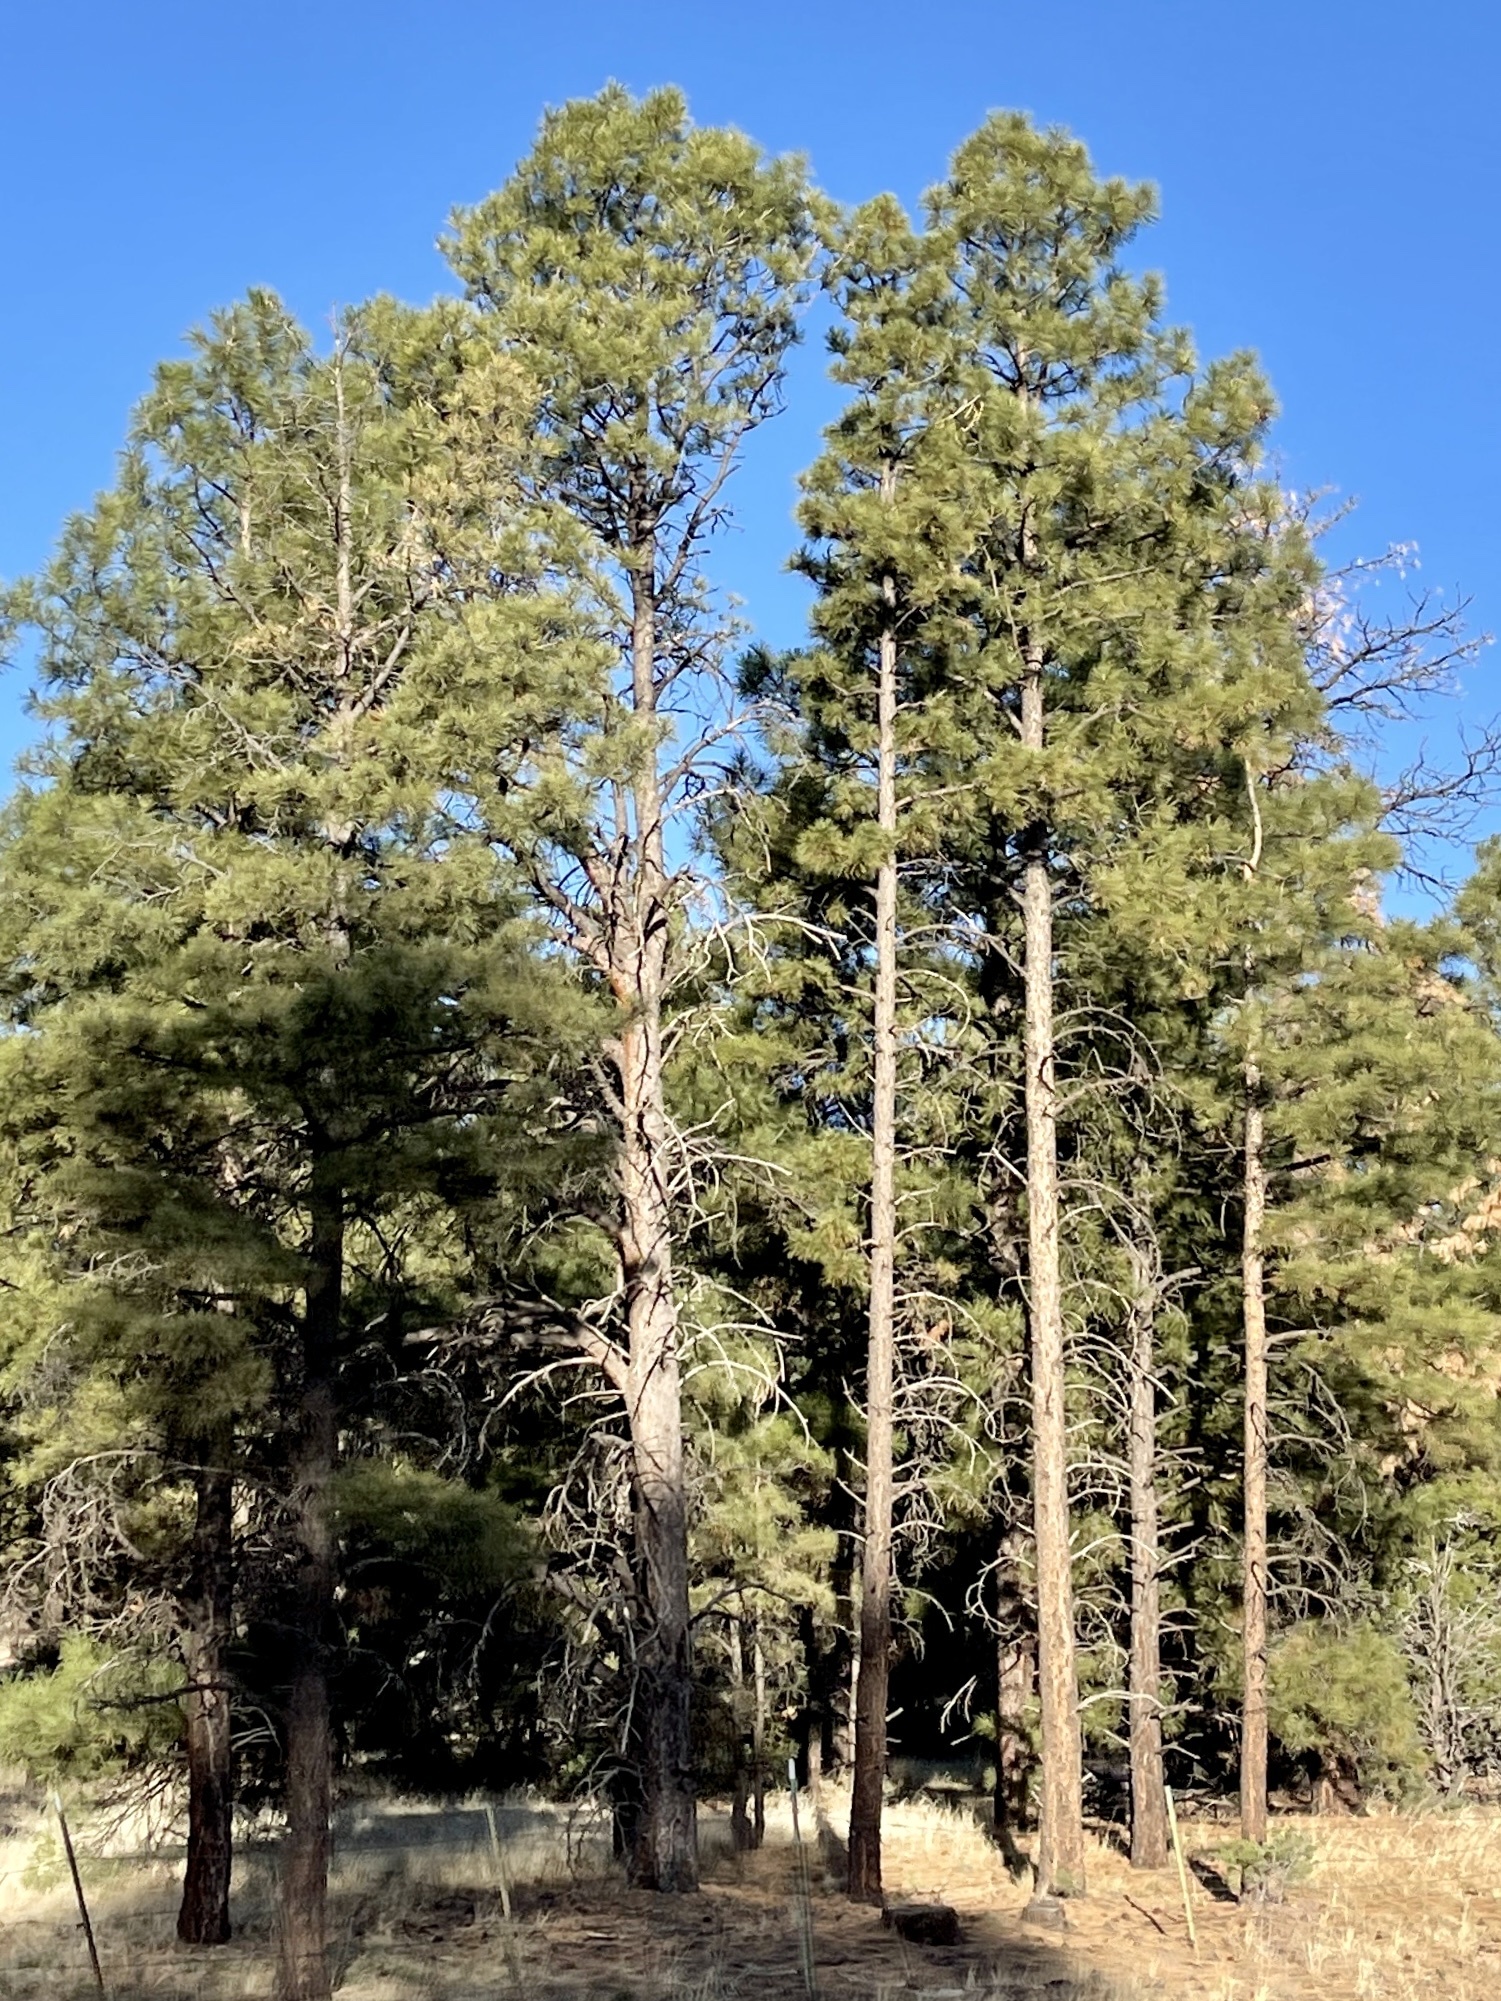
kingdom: Plantae
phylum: Tracheophyta
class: Pinopsida
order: Pinales
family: Pinaceae
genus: Pinus
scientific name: Pinus ponderosa
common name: Western yellow-pine
